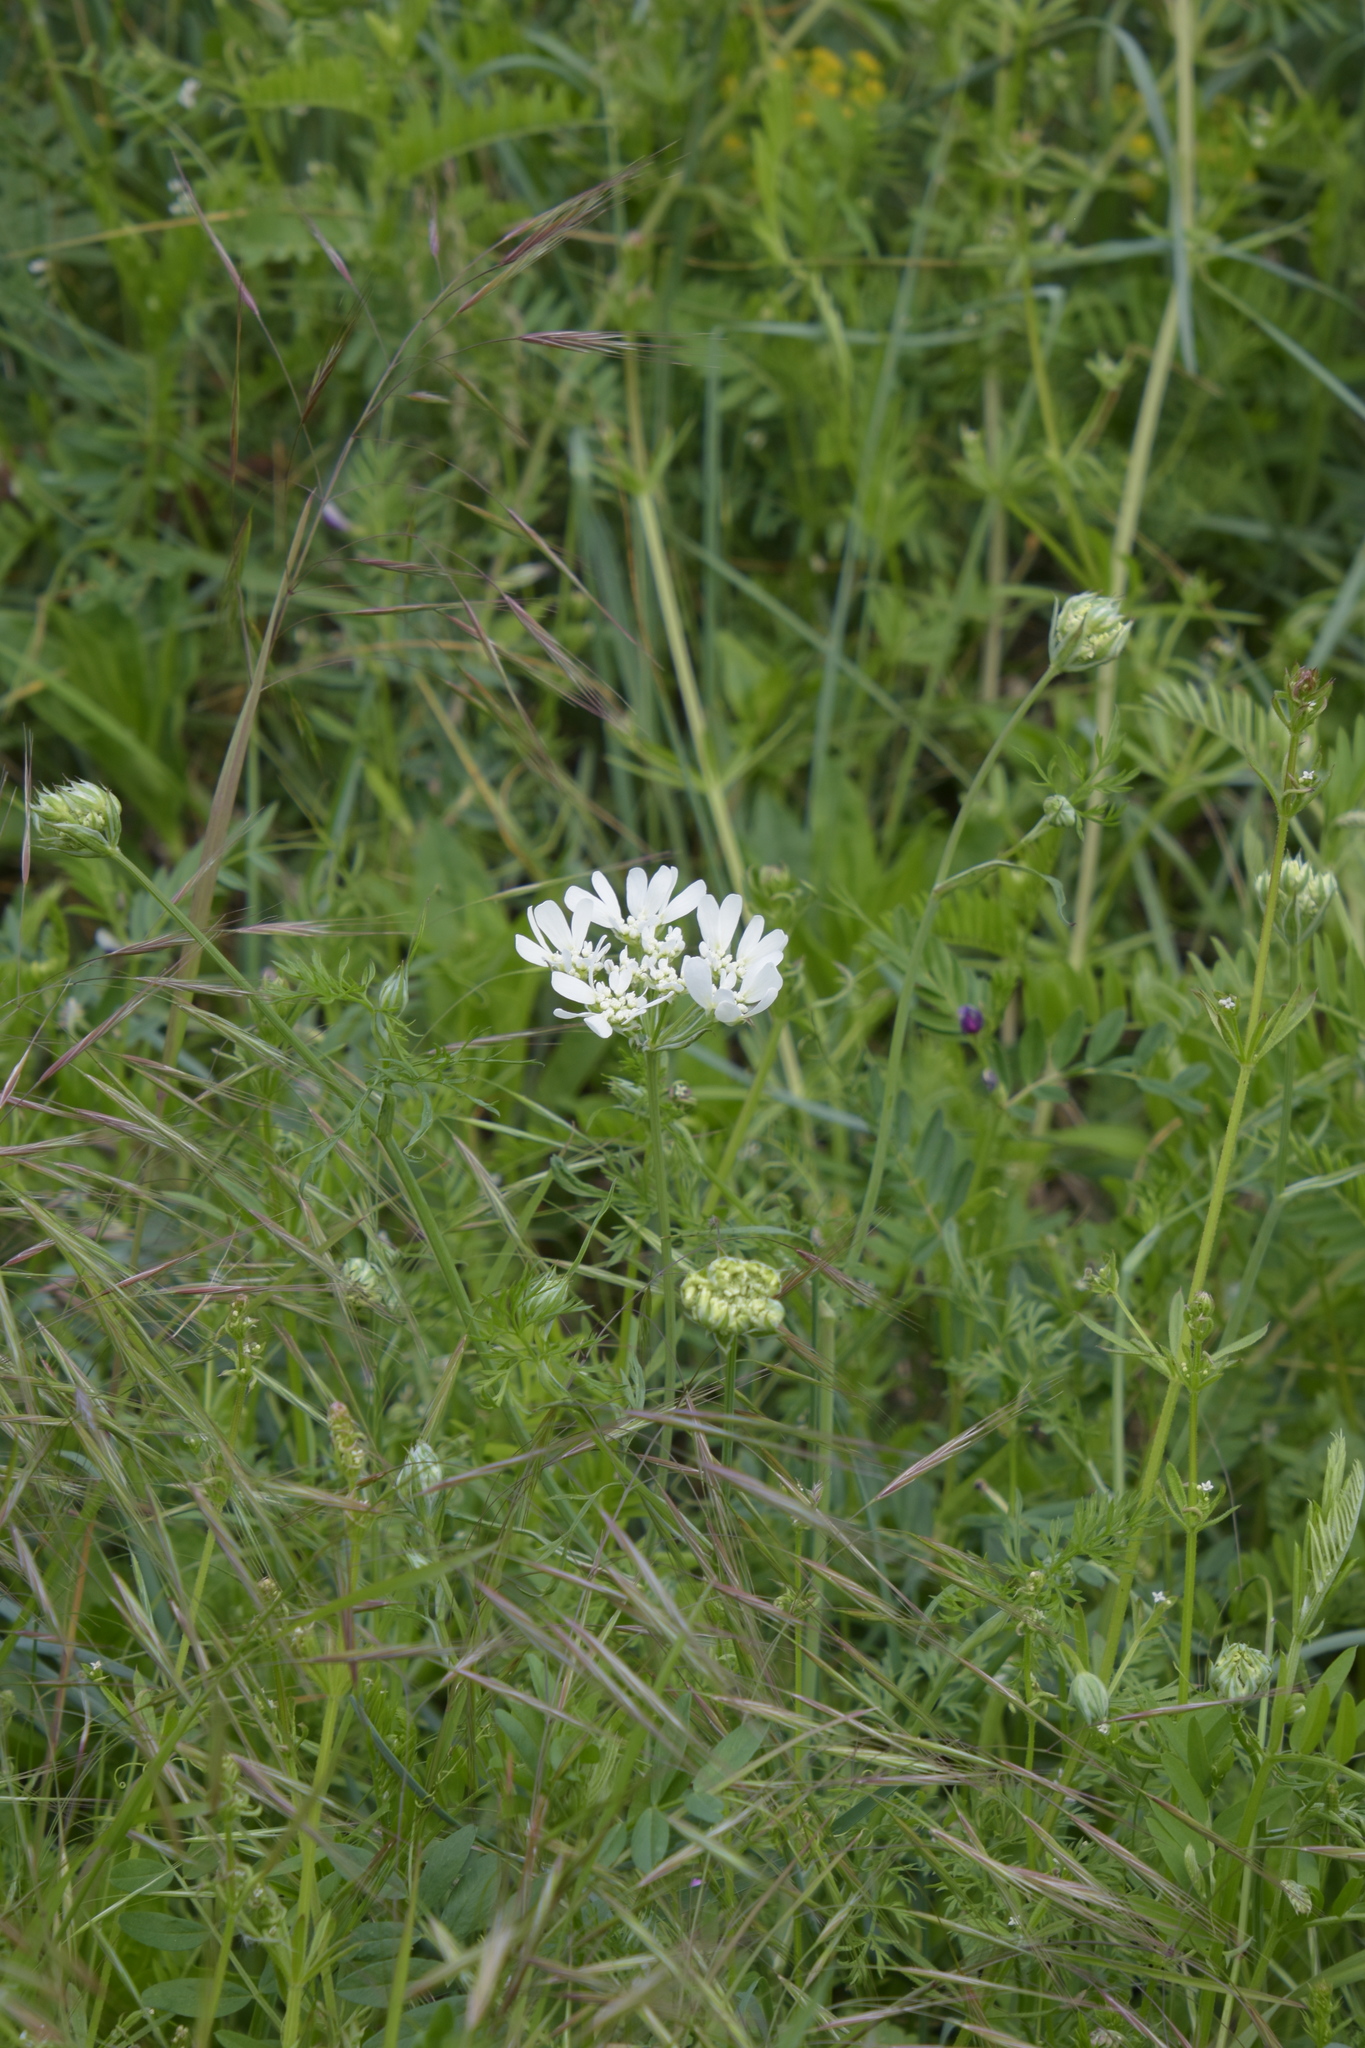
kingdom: Plantae
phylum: Tracheophyta
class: Magnoliopsida
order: Apiales
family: Apiaceae
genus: Orlaya
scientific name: Orlaya grandiflora
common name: White lace flower
